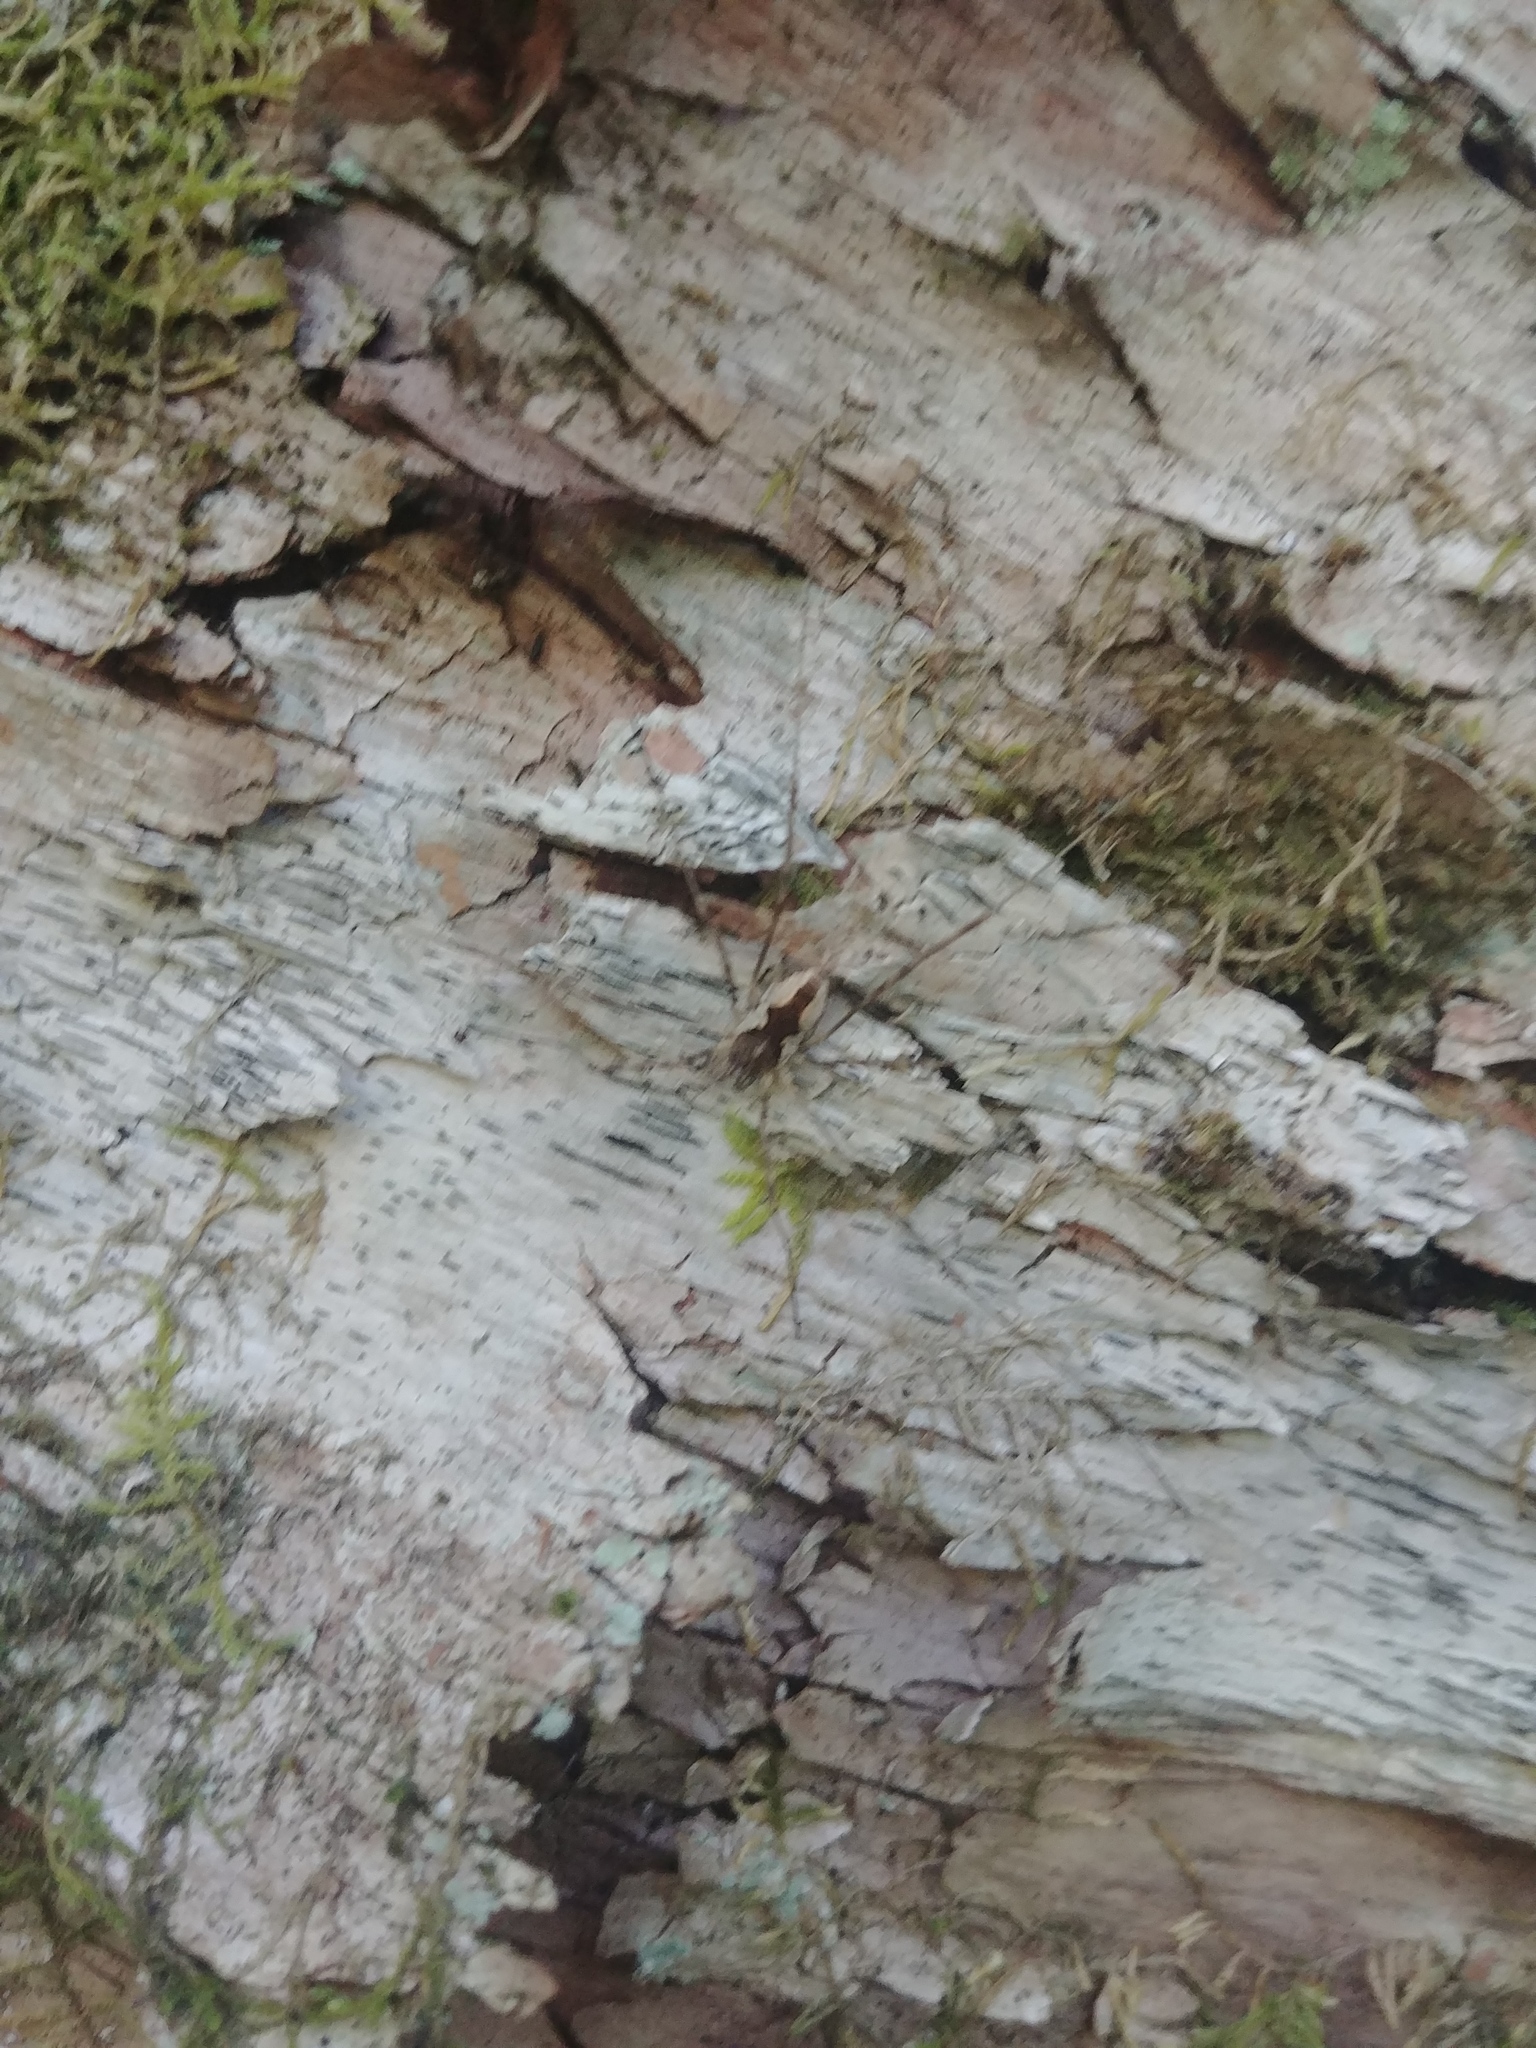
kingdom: Animalia
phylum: Arthropoda
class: Arachnida
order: Opiliones
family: Phalangiidae
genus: Mitopus
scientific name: Mitopus morio
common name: Saddleback harvestman
